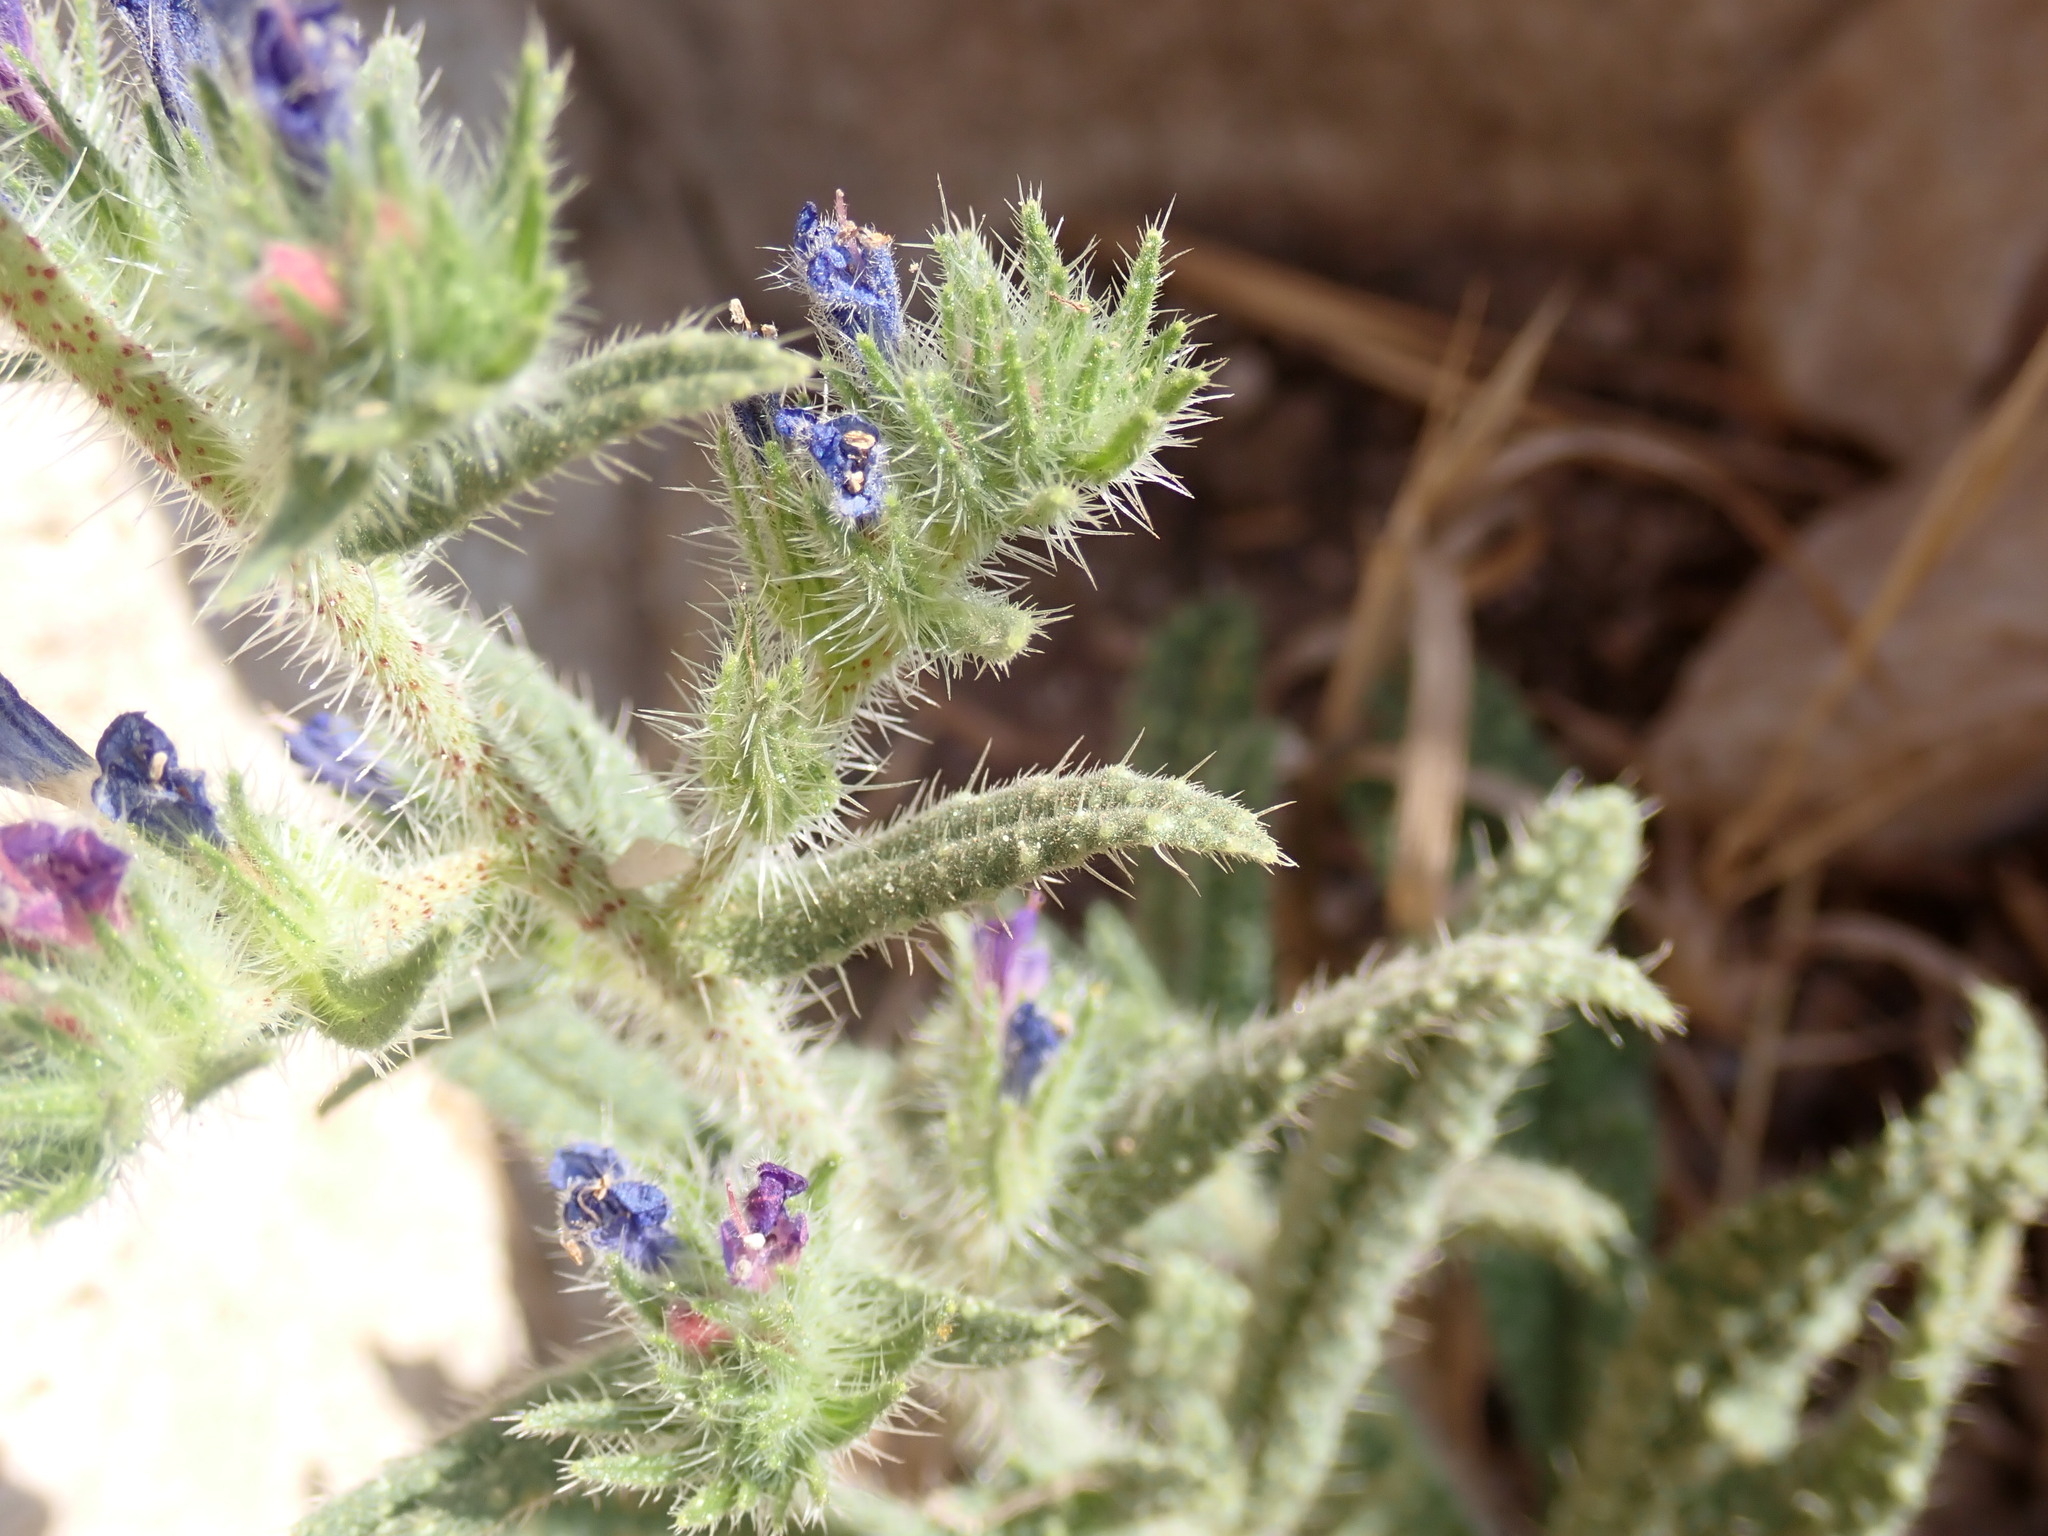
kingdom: Plantae
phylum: Tracheophyta
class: Magnoliopsida
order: Boraginales
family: Boraginaceae
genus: Echium
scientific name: Echium creticum
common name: Cretan viper's bugloss
